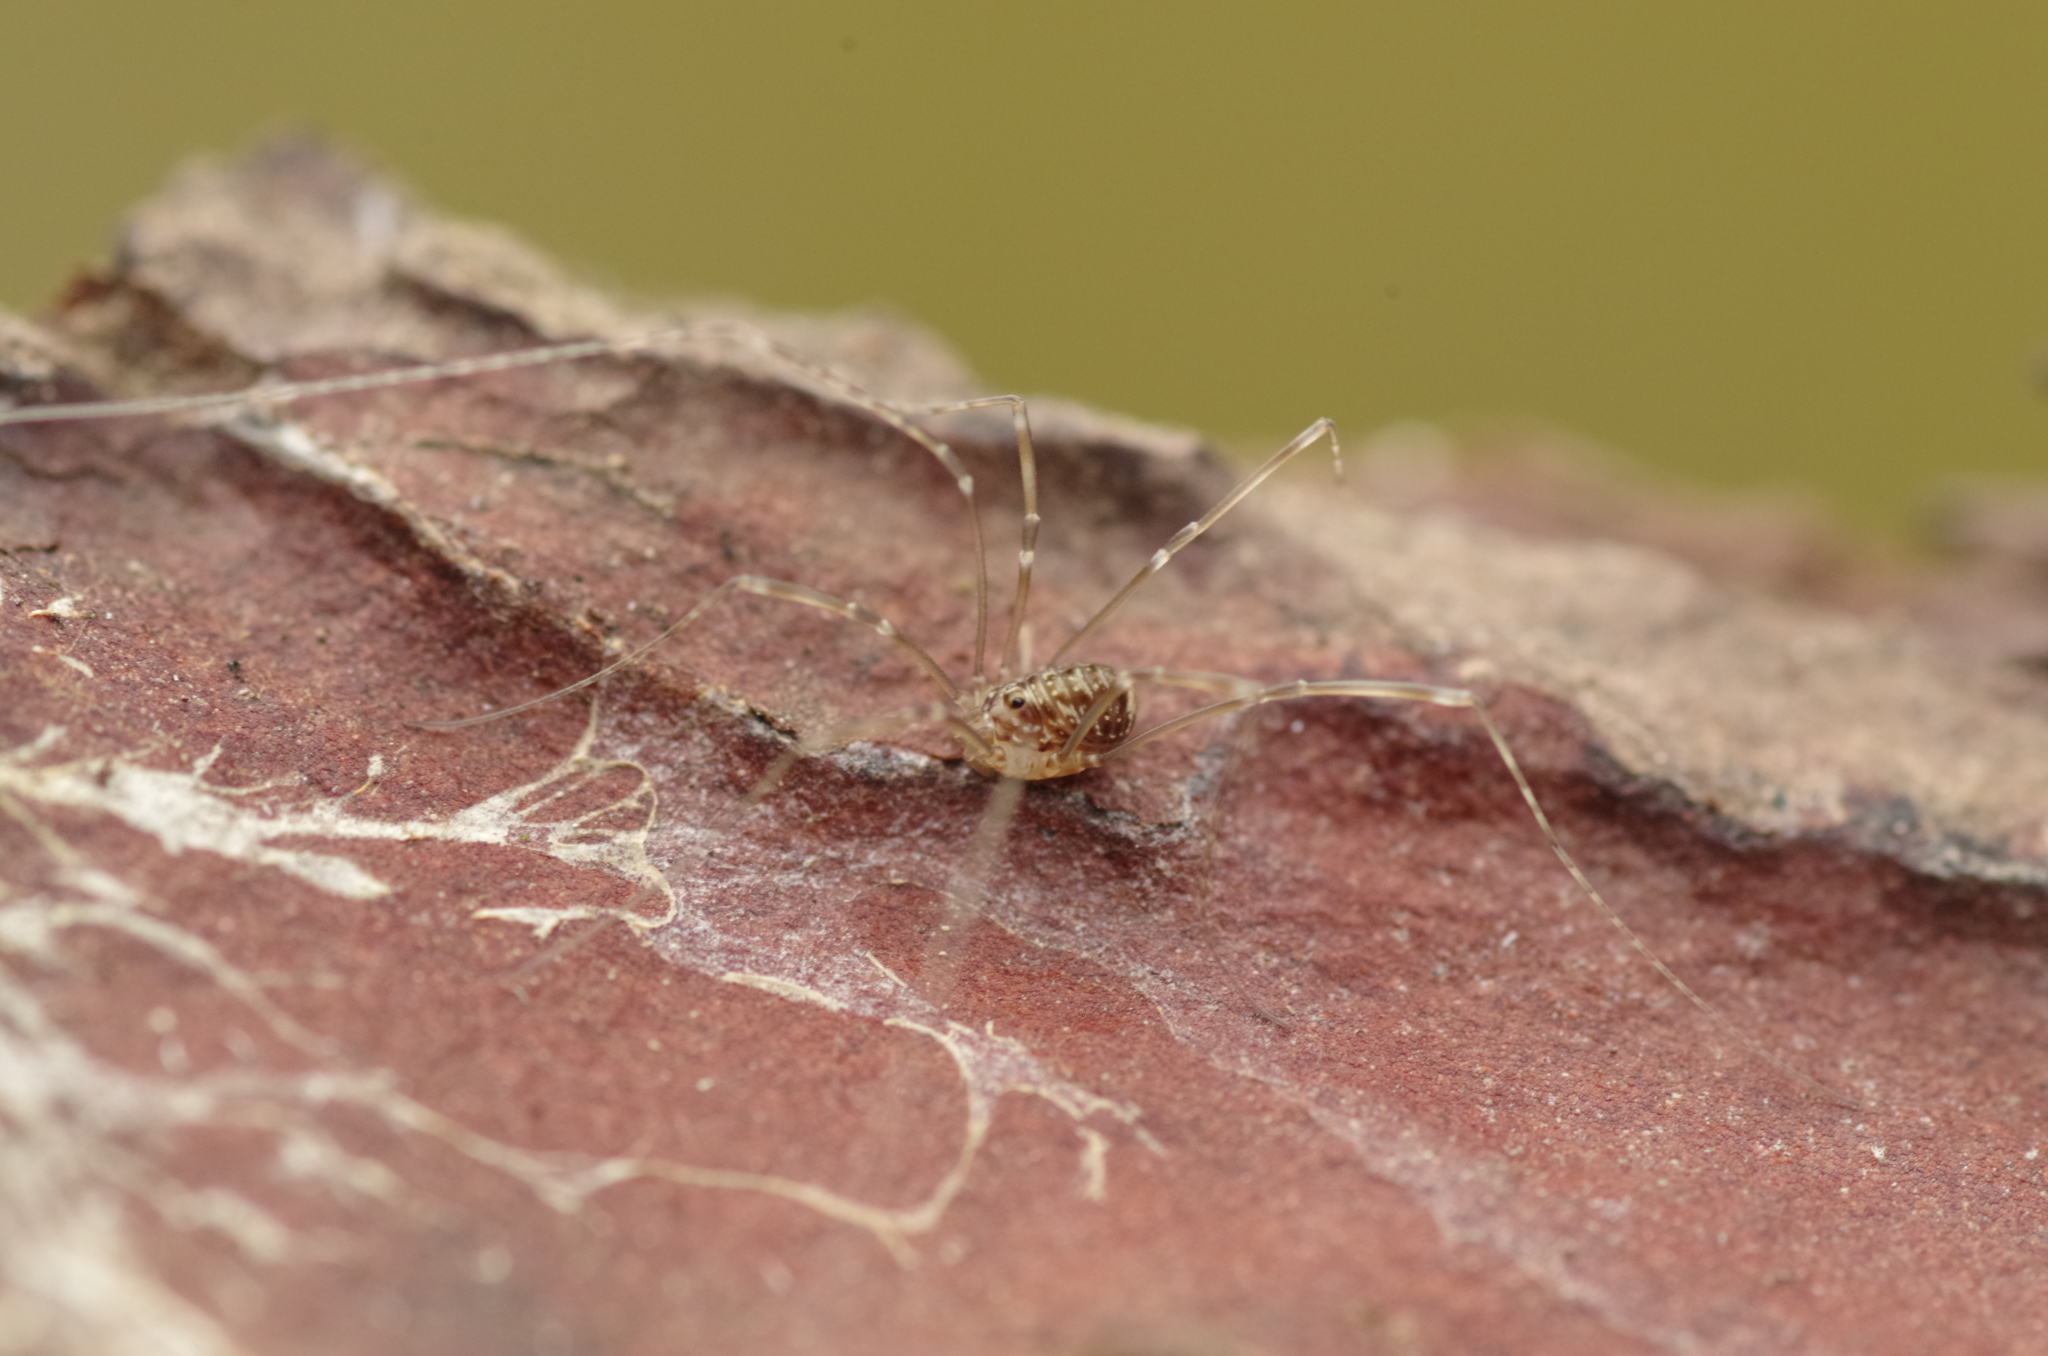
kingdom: Animalia
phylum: Arthropoda
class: Arachnida
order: Opiliones
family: Sclerosomatidae
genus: Leiobunum
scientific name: Leiobunum blackwalli
